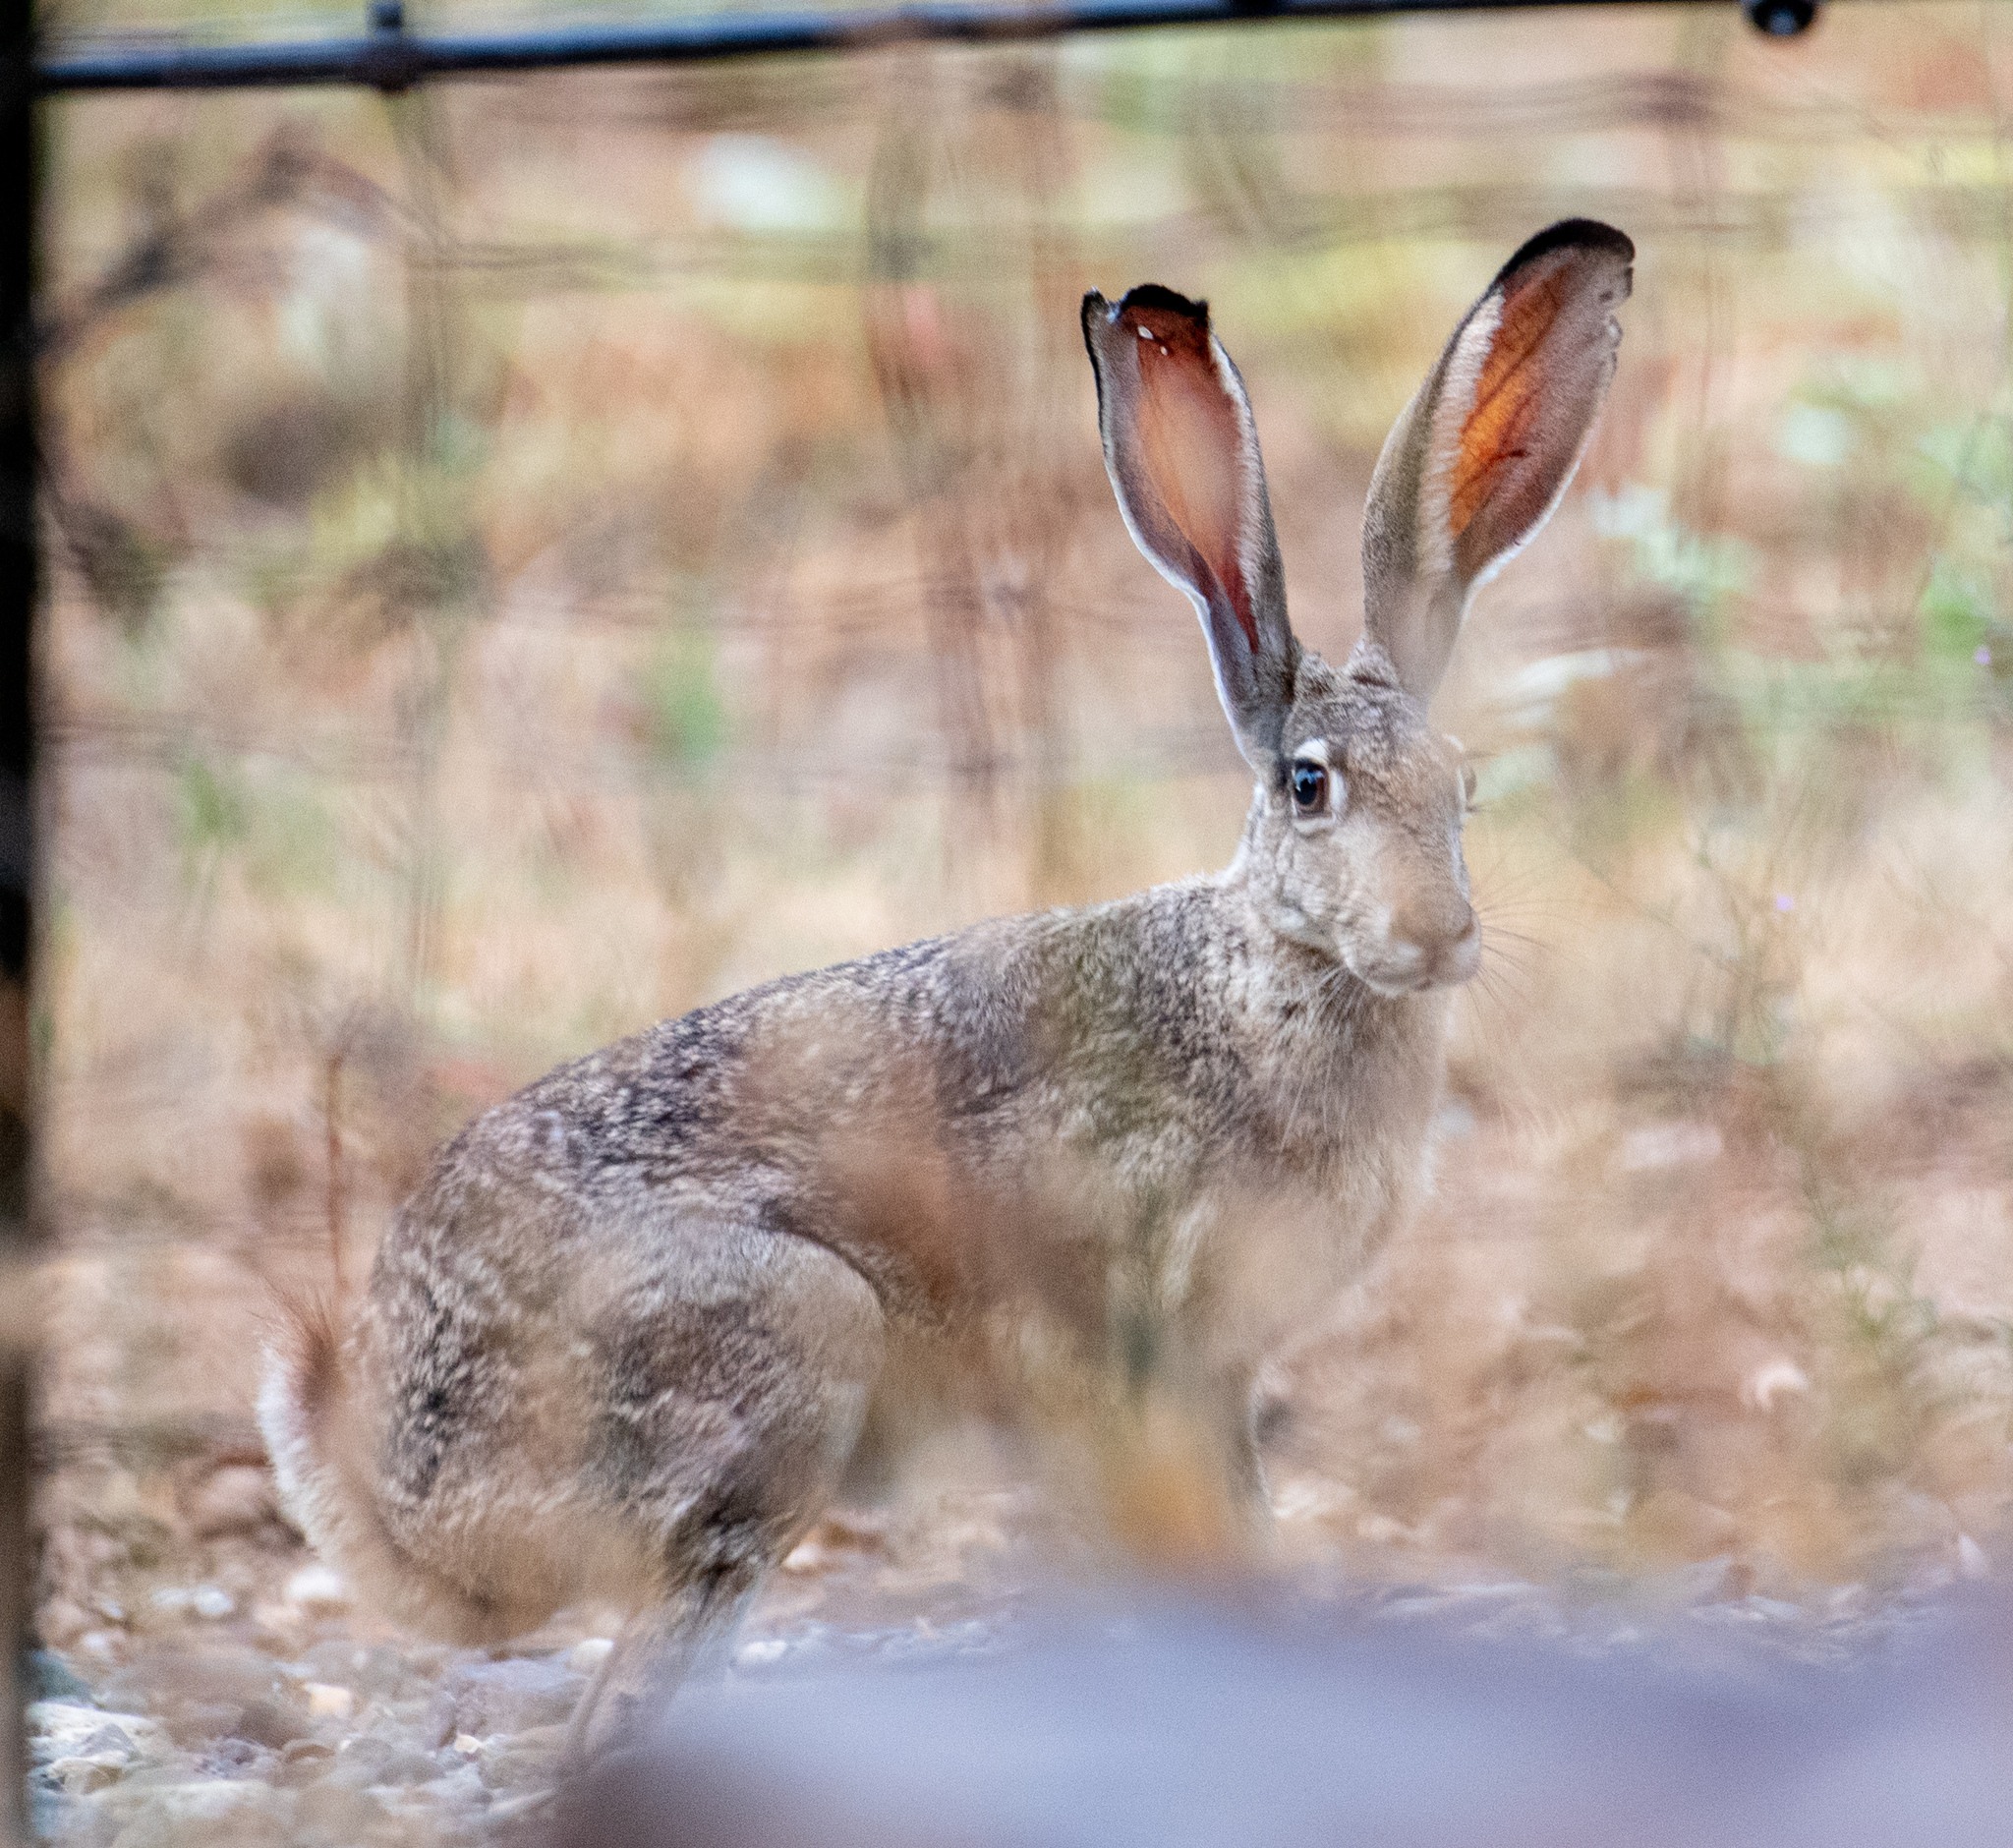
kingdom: Animalia
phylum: Chordata
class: Mammalia
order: Lagomorpha
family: Leporidae
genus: Lepus
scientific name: Lepus californicus
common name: Black-tailed jackrabbit
